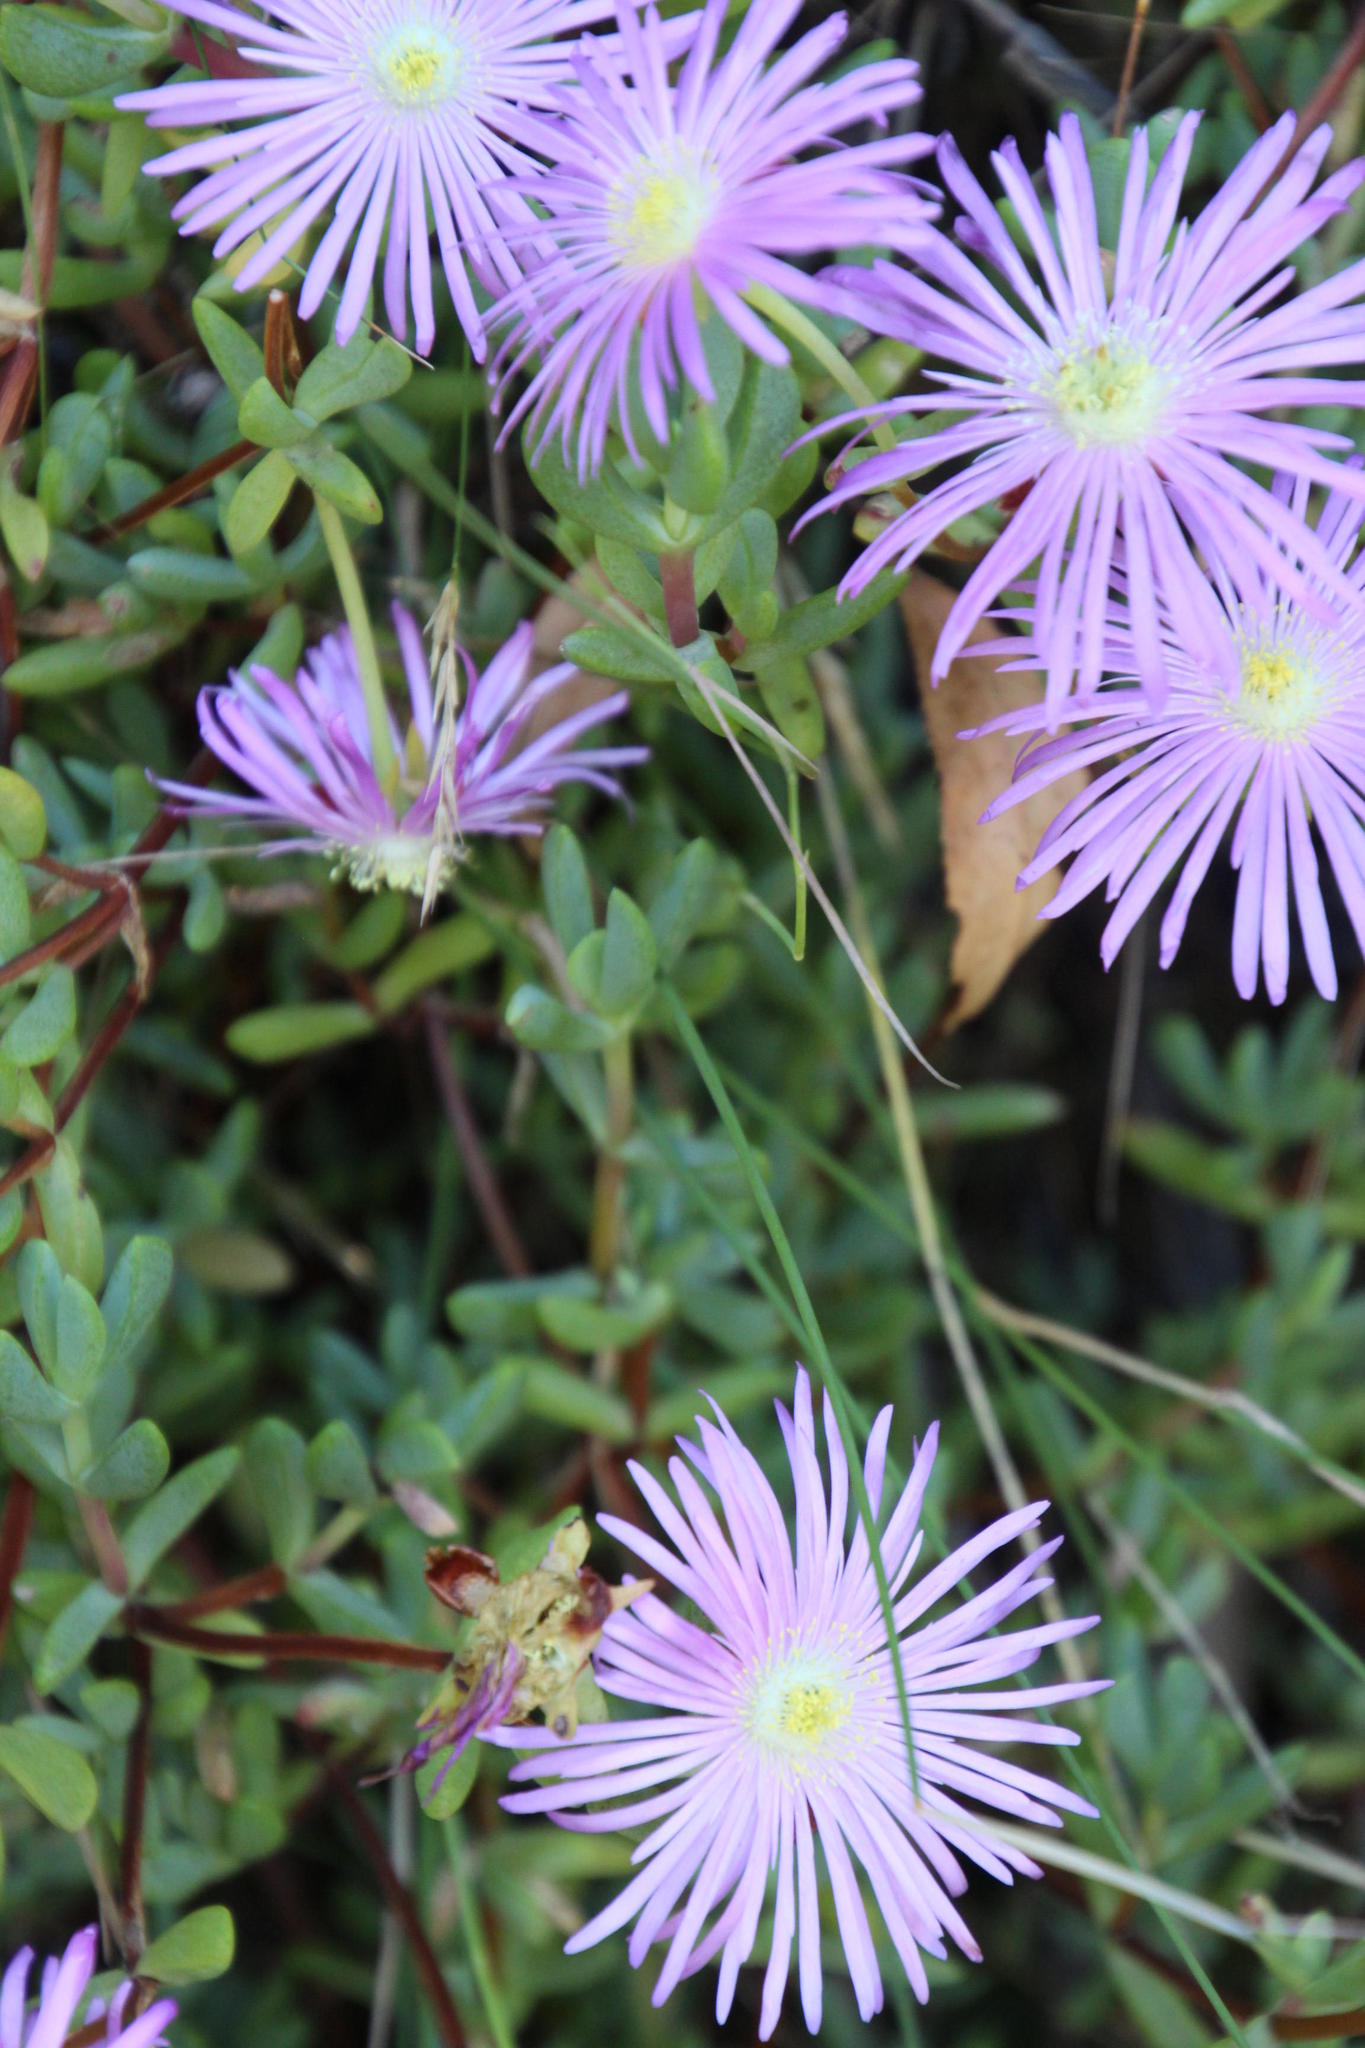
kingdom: Plantae
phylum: Tracheophyta
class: Magnoliopsida
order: Caryophyllales
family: Aizoaceae
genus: Oscularia
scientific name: Oscularia falciformis
